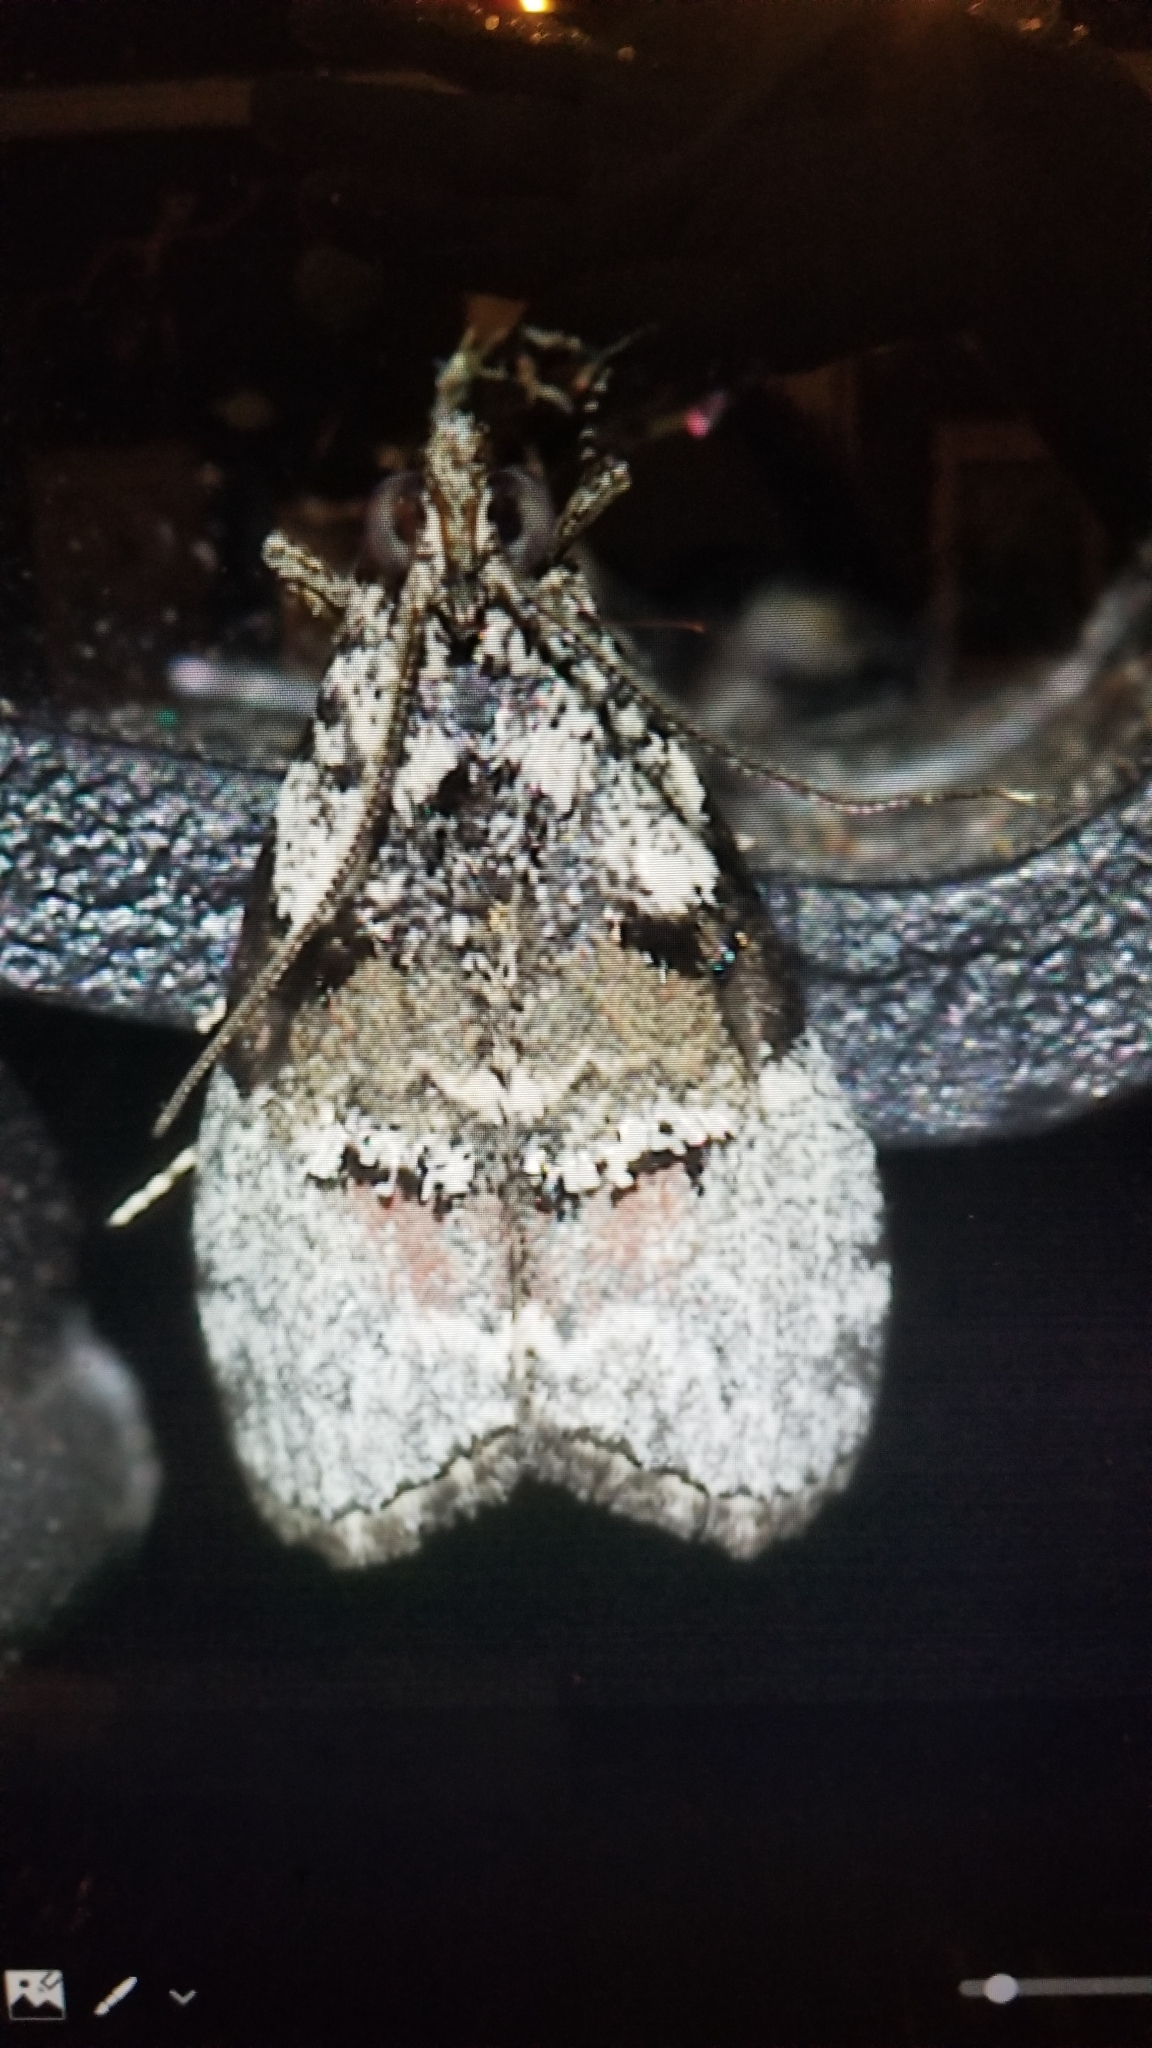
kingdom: Animalia
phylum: Arthropoda
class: Insecta
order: Lepidoptera
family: Pyralidae
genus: Pococera
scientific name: Pococera humerella
